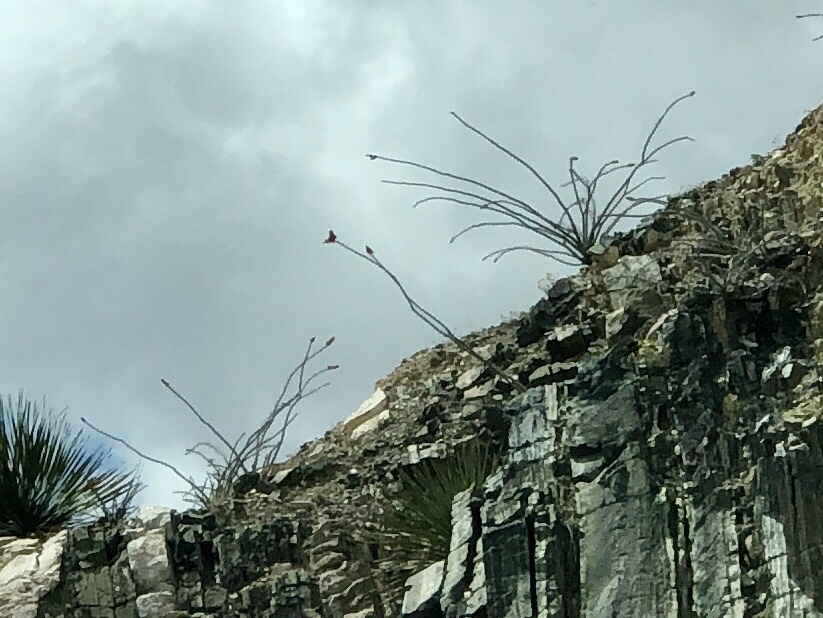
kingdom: Plantae
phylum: Tracheophyta
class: Magnoliopsida
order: Ericales
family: Fouquieriaceae
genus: Fouquieria
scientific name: Fouquieria splendens
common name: Vine-cactus
